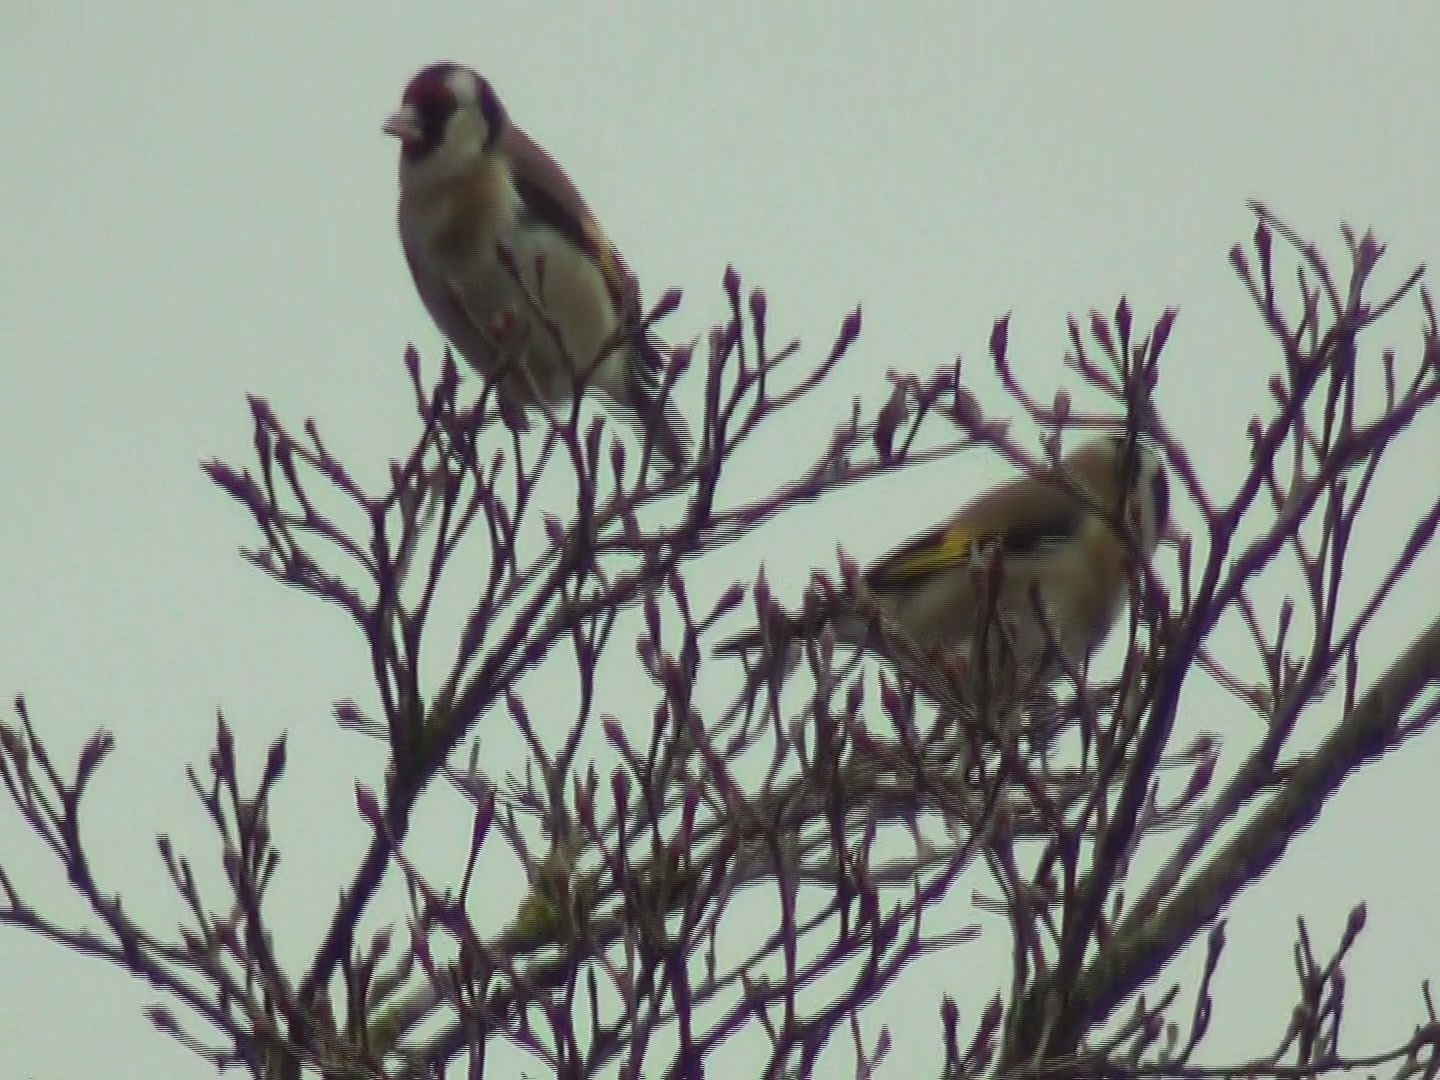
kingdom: Animalia
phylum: Chordata
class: Aves
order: Passeriformes
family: Fringillidae
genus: Carduelis
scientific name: Carduelis carduelis
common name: European goldfinch
